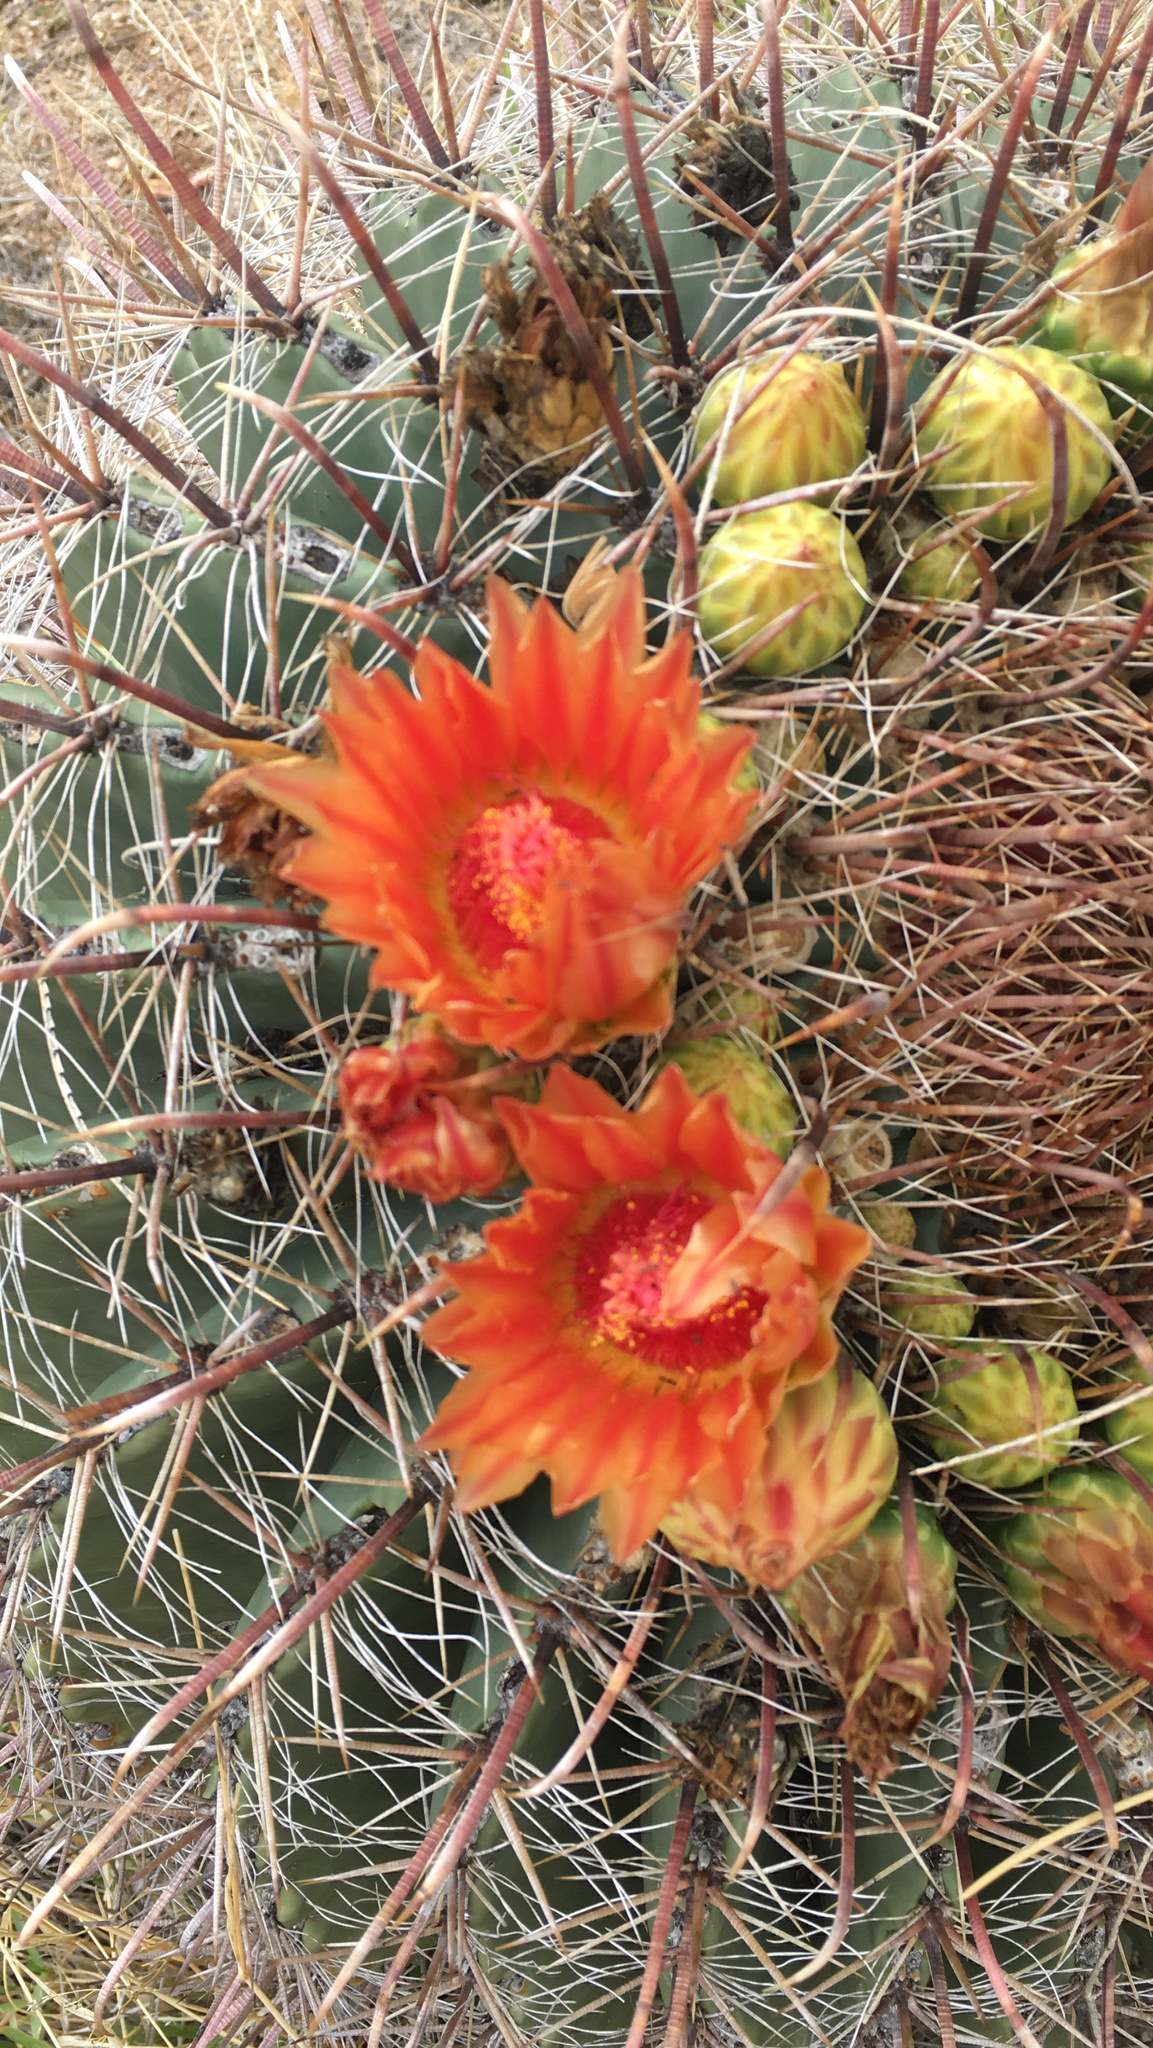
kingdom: Plantae
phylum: Tracheophyta
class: Magnoliopsida
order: Caryophyllales
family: Cactaceae
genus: Ferocactus
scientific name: Ferocactus wislizeni
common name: Candy barrel cactus
